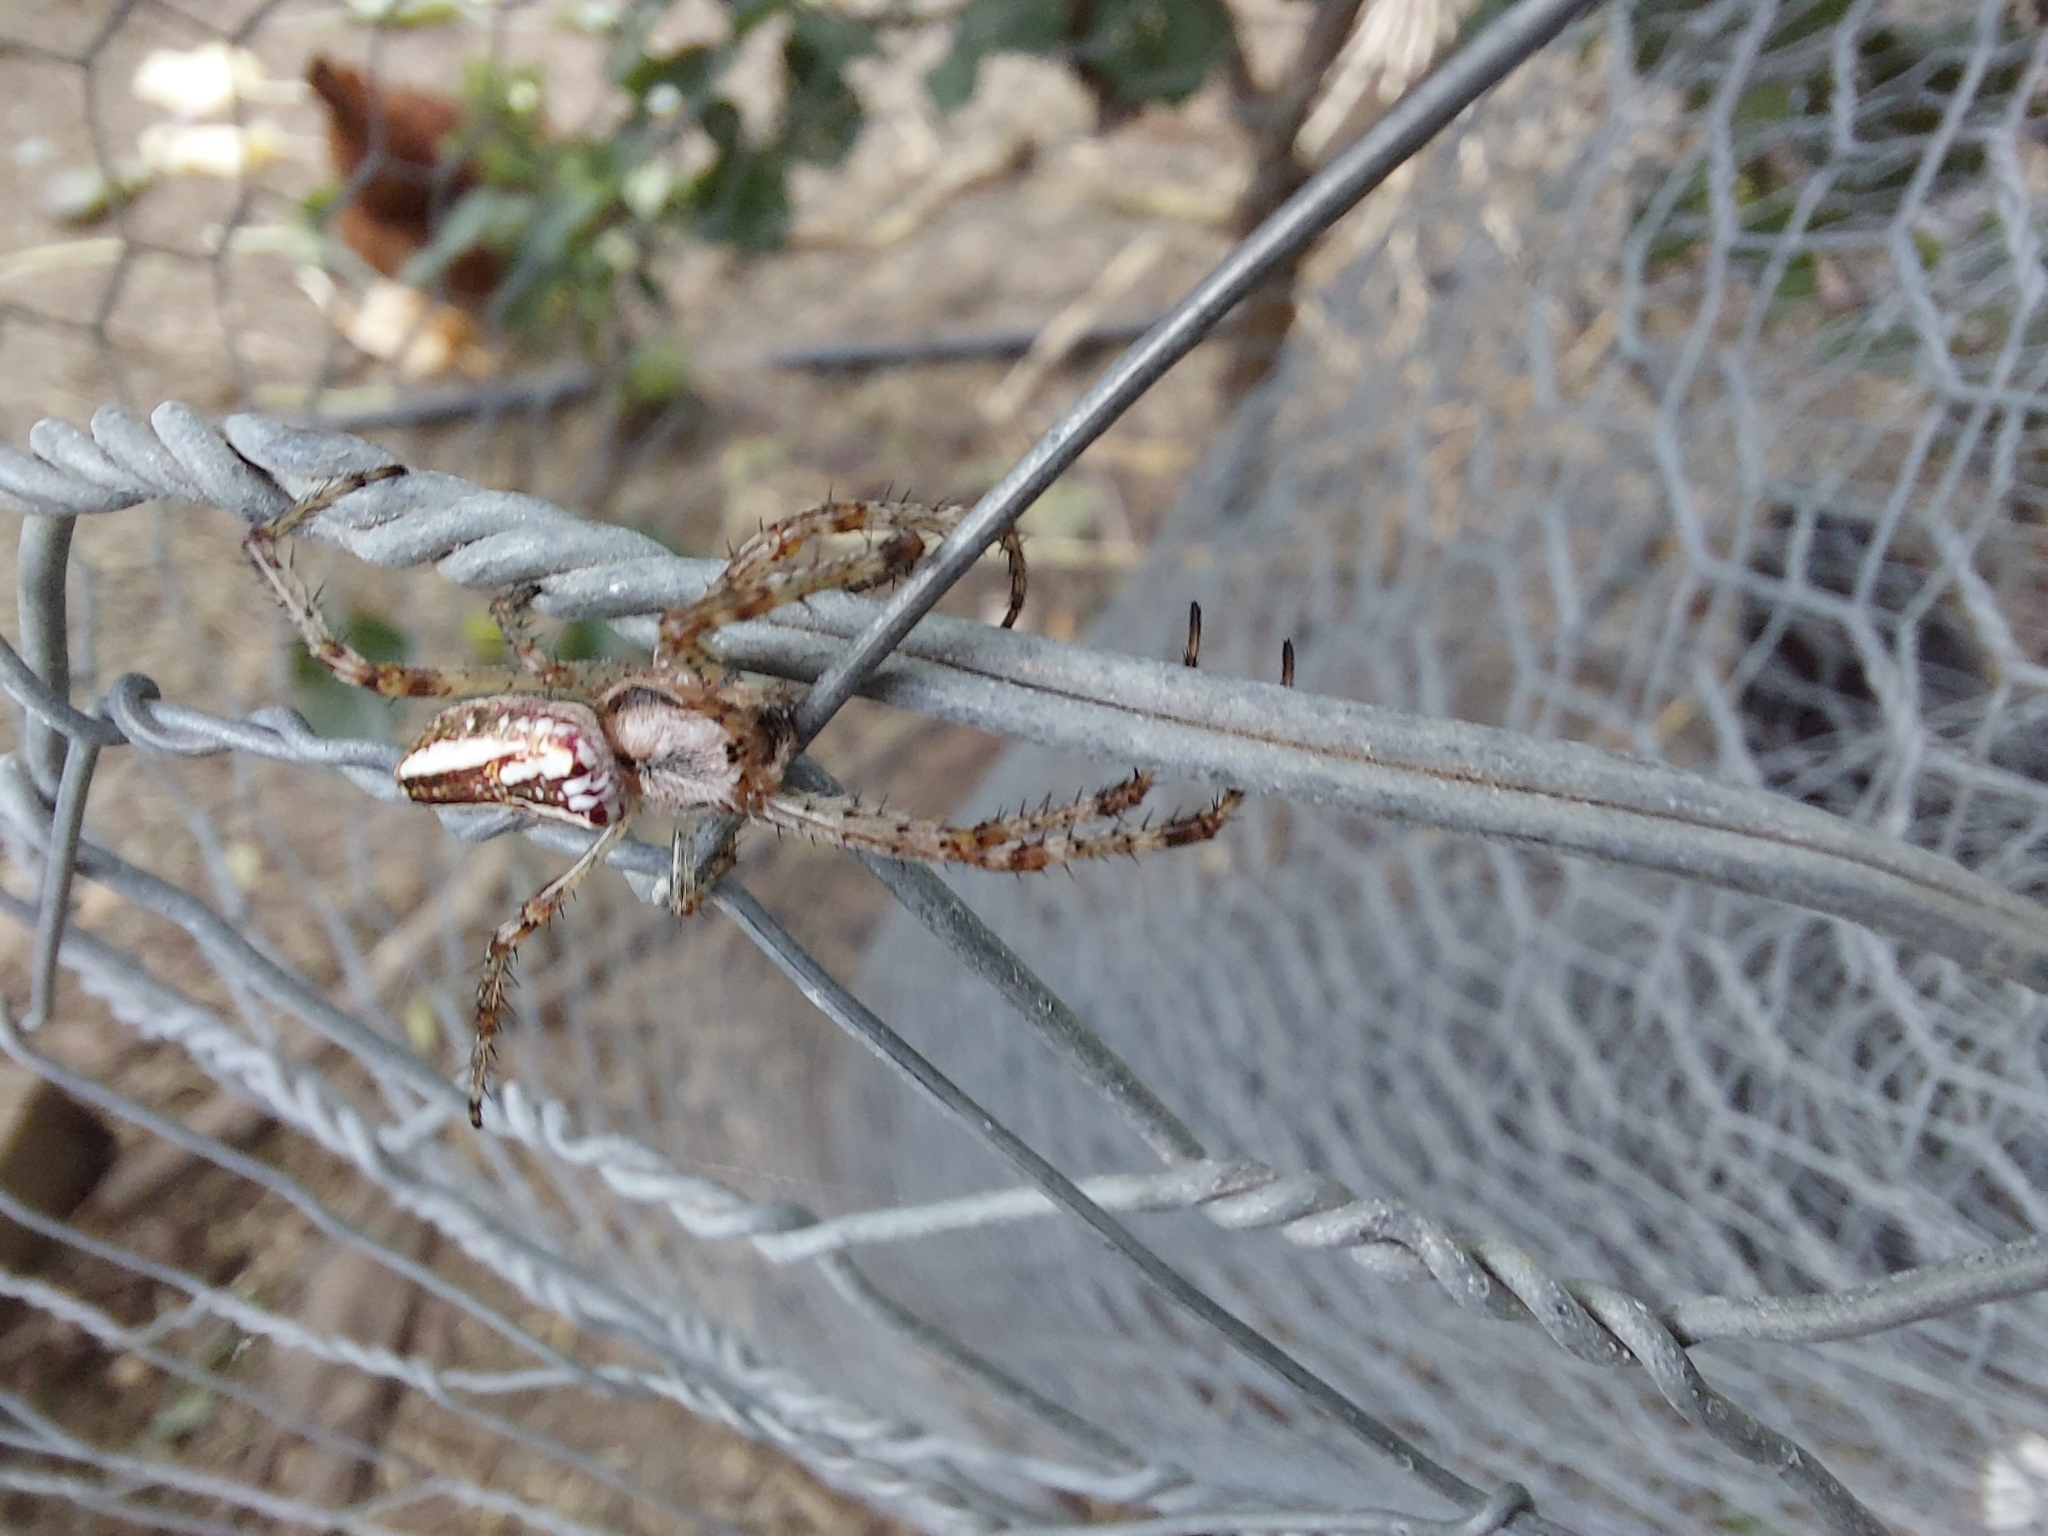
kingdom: Animalia
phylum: Arthropoda
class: Arachnida
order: Araneae
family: Araneidae
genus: Plebs
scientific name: Plebs bradleyi
